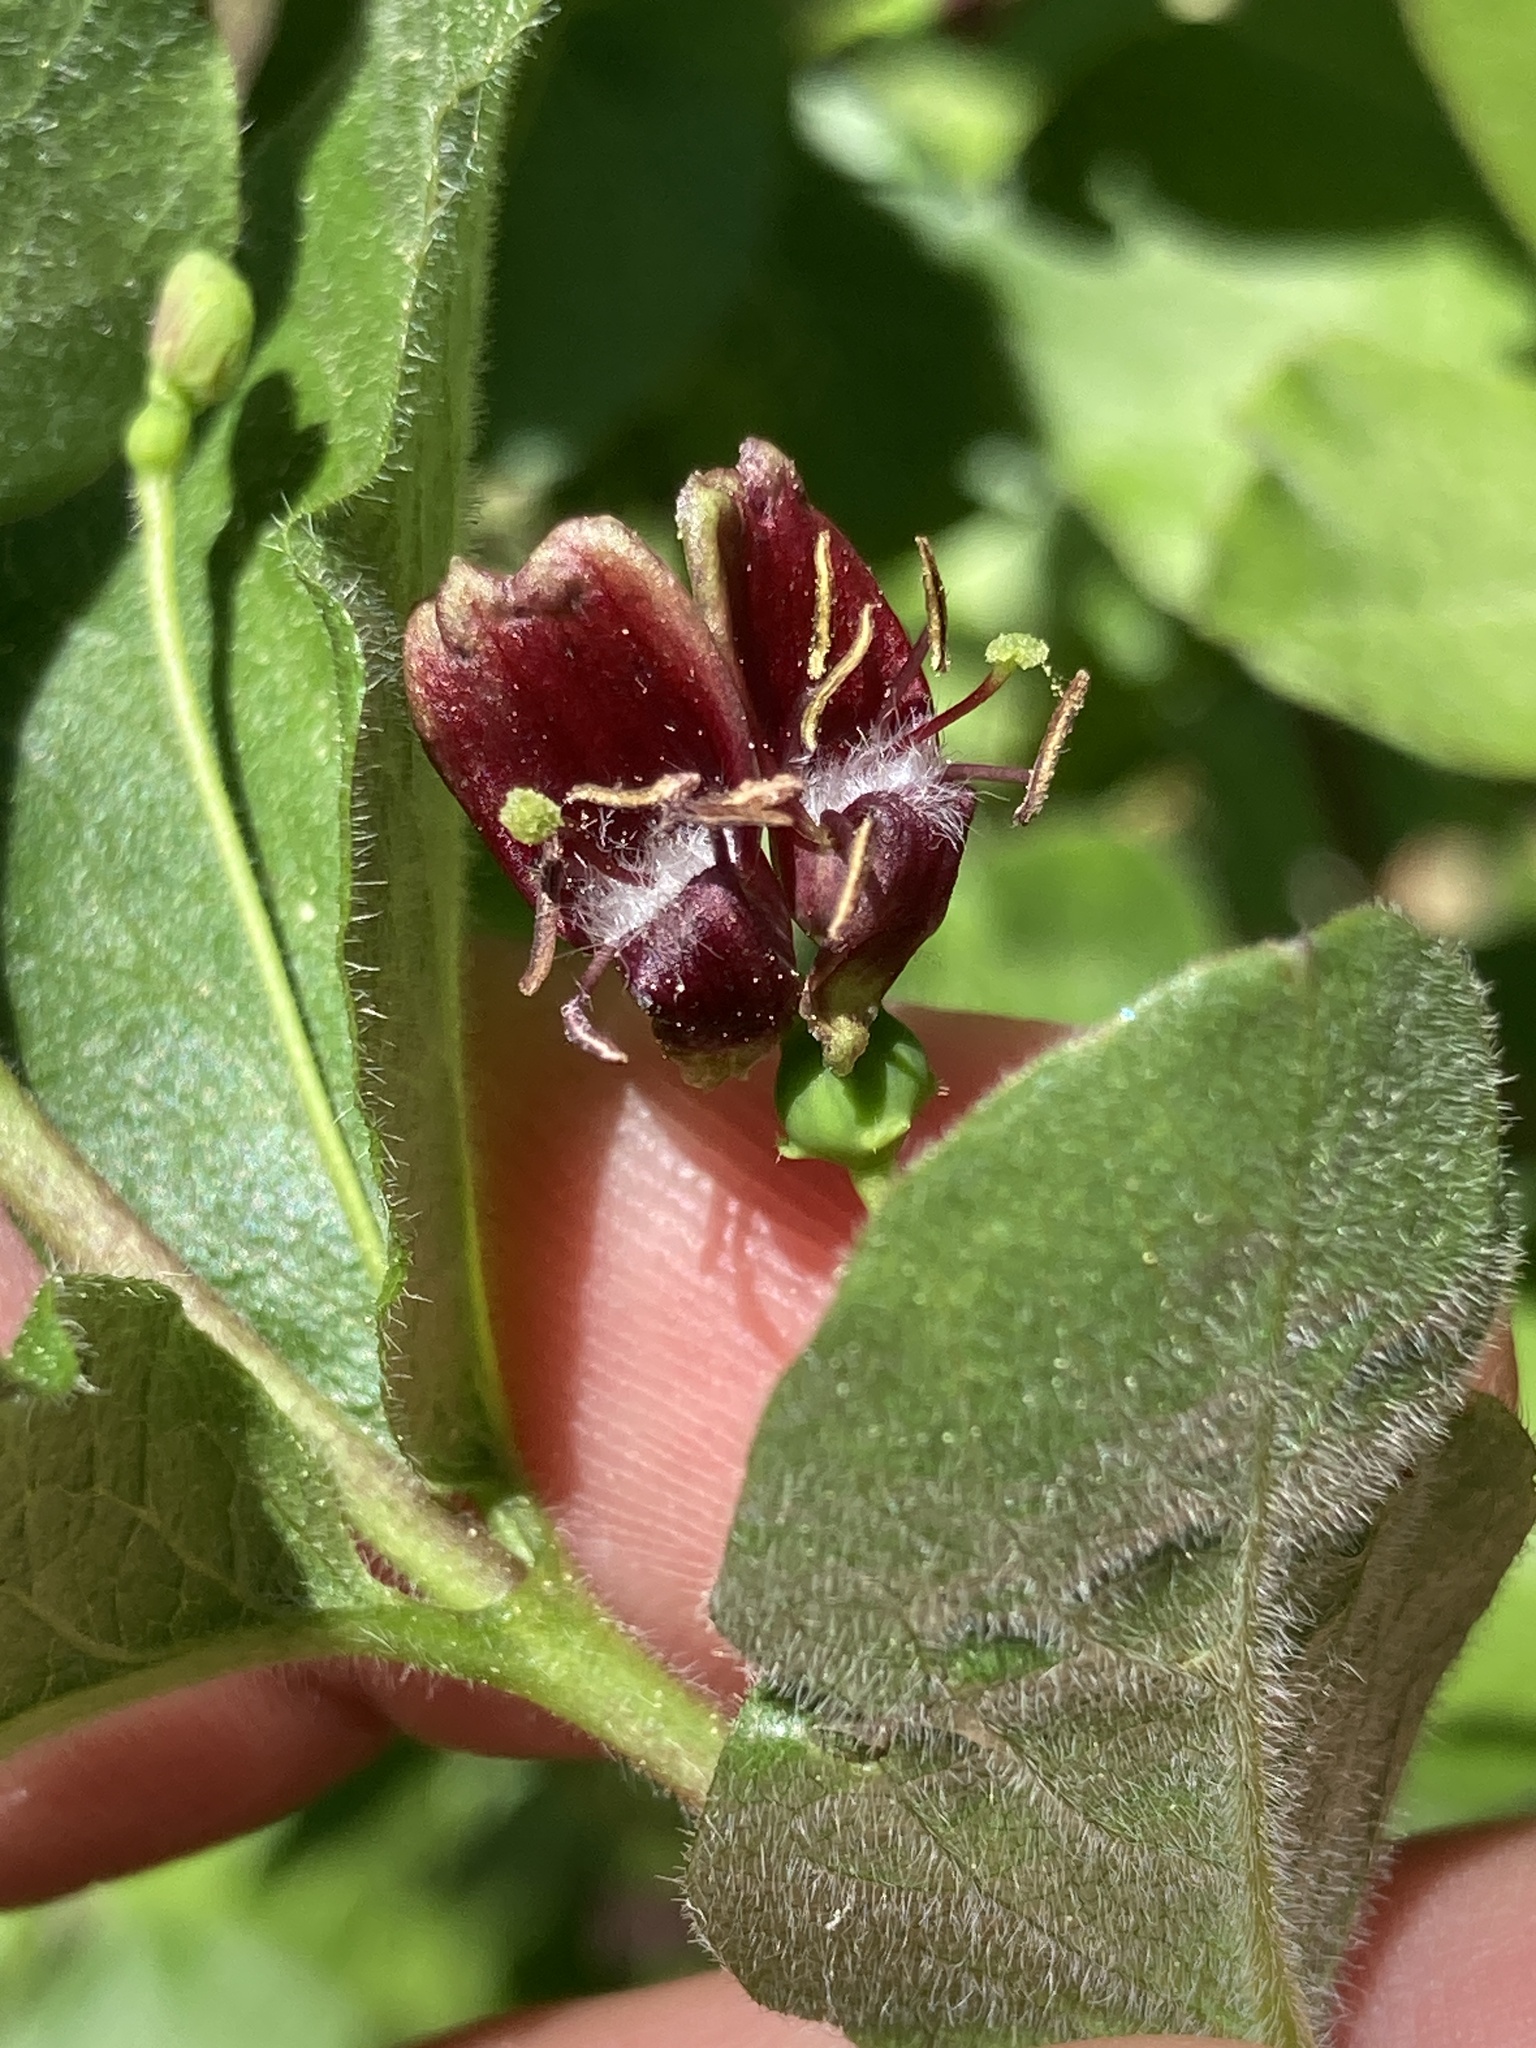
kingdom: Plantae
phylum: Tracheophyta
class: Magnoliopsida
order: Dipsacales
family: Caprifoliaceae
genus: Lonicera
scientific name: Lonicera conjugialis
